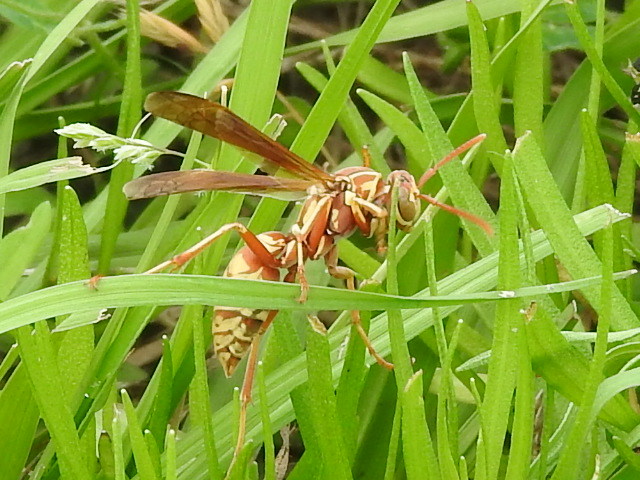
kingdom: Animalia
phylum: Arthropoda
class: Insecta
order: Hymenoptera
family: Eumenidae
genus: Polistes
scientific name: Polistes apachus
